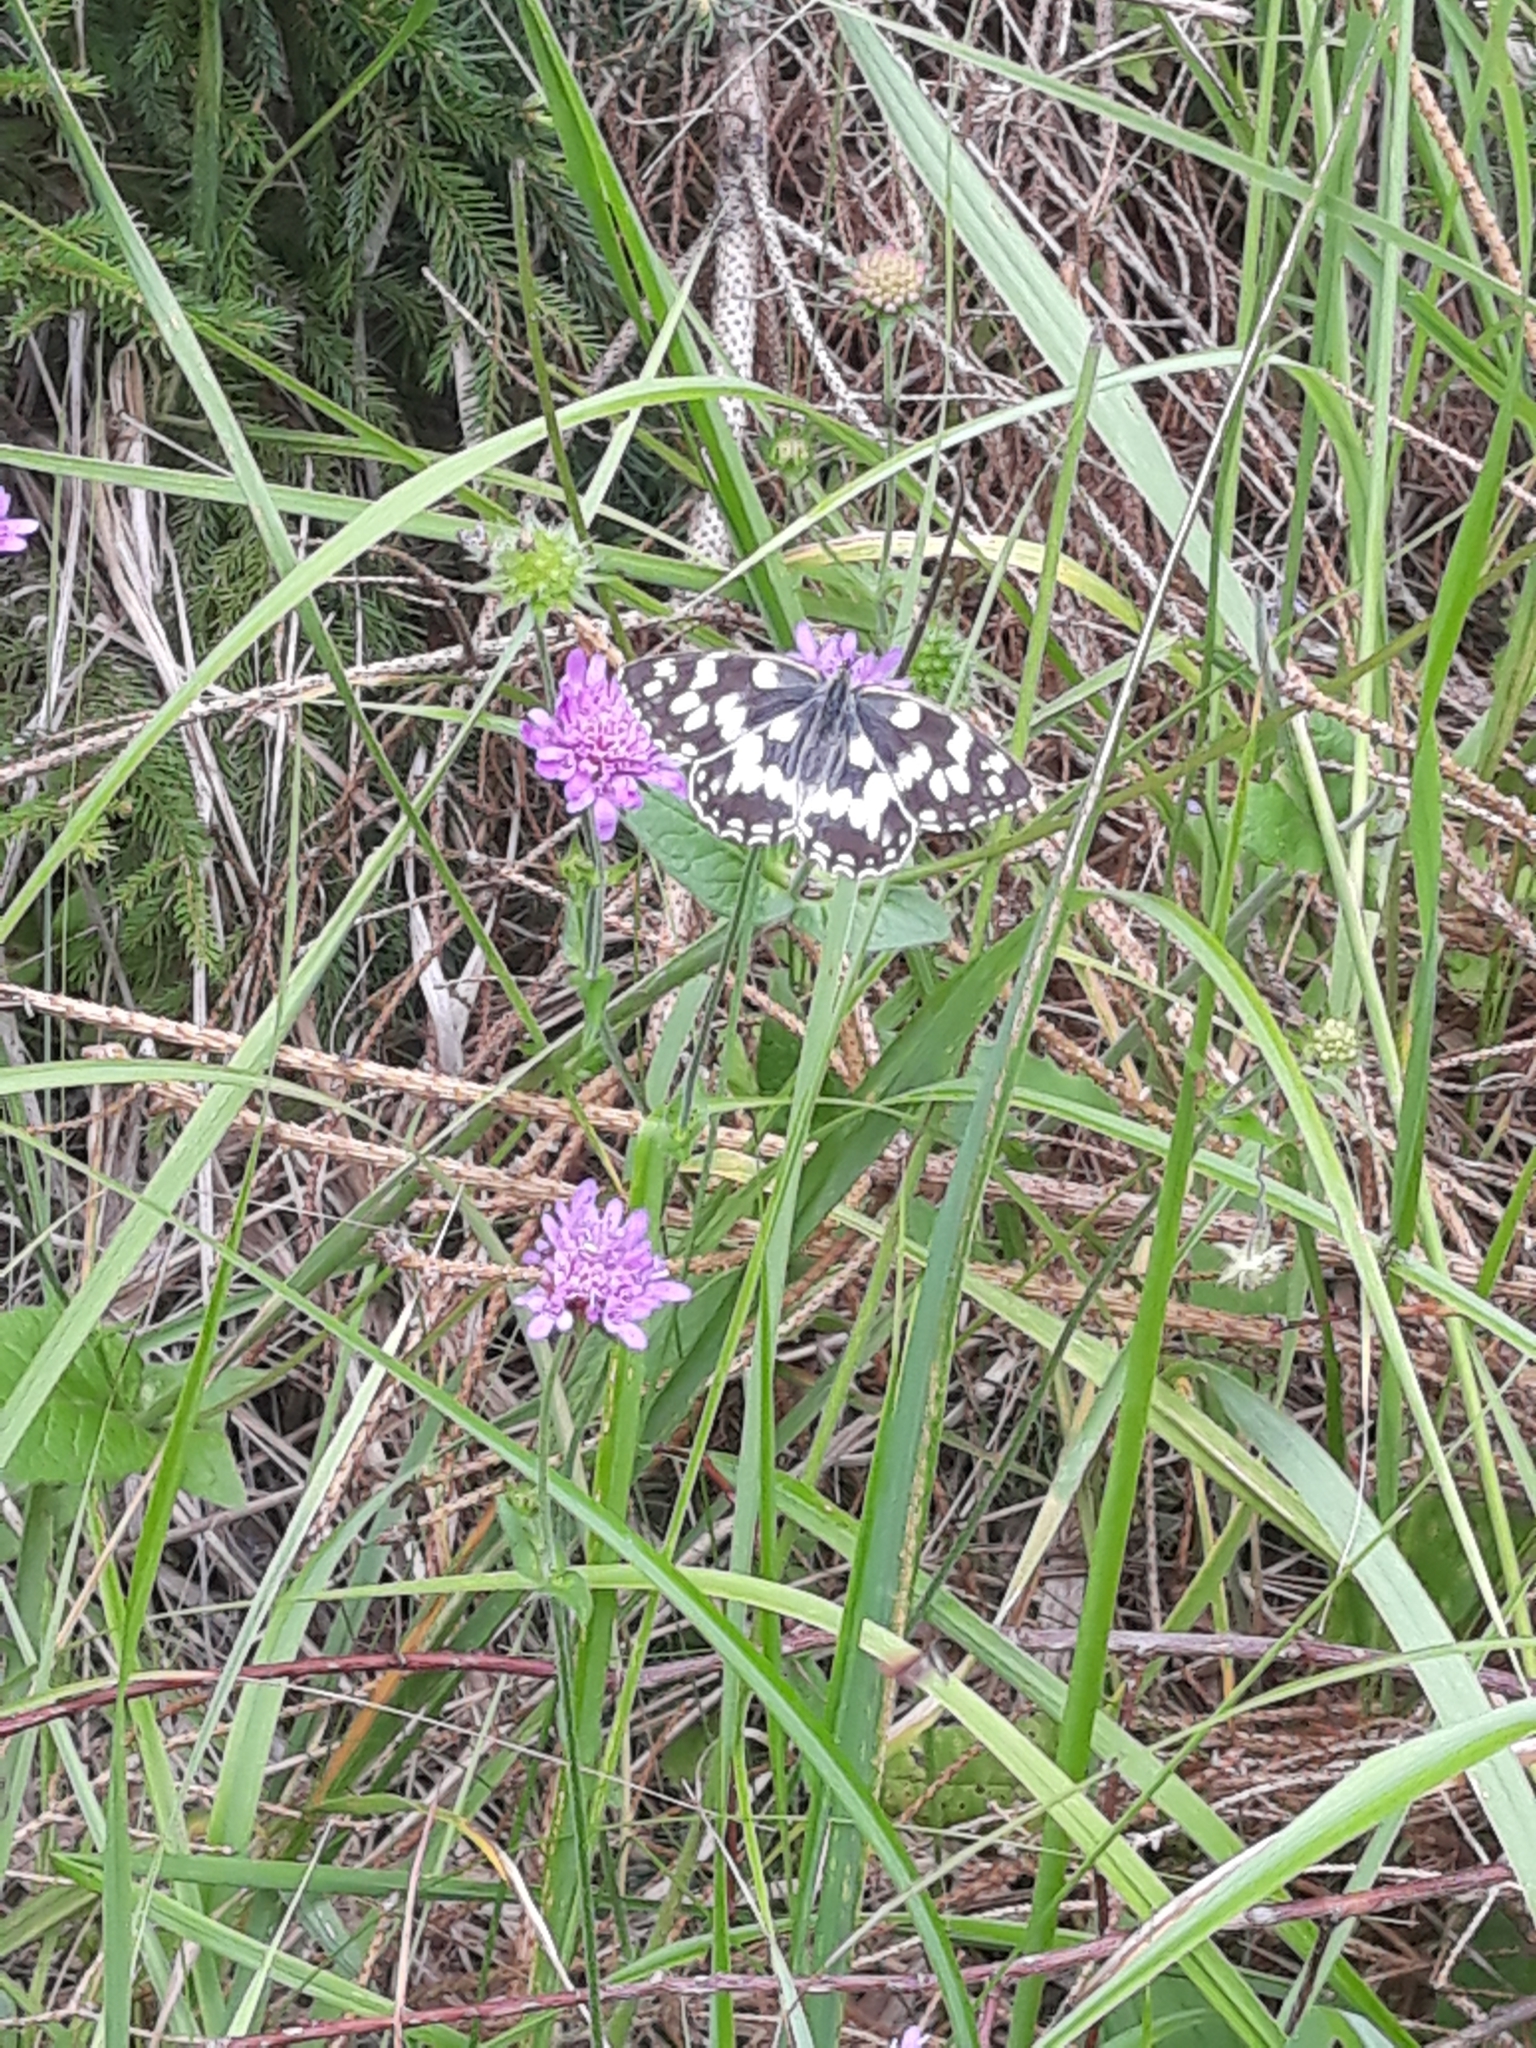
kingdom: Animalia
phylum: Arthropoda
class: Insecta
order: Lepidoptera
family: Nymphalidae
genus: Melanargia
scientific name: Melanargia galathea
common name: Marbled white
